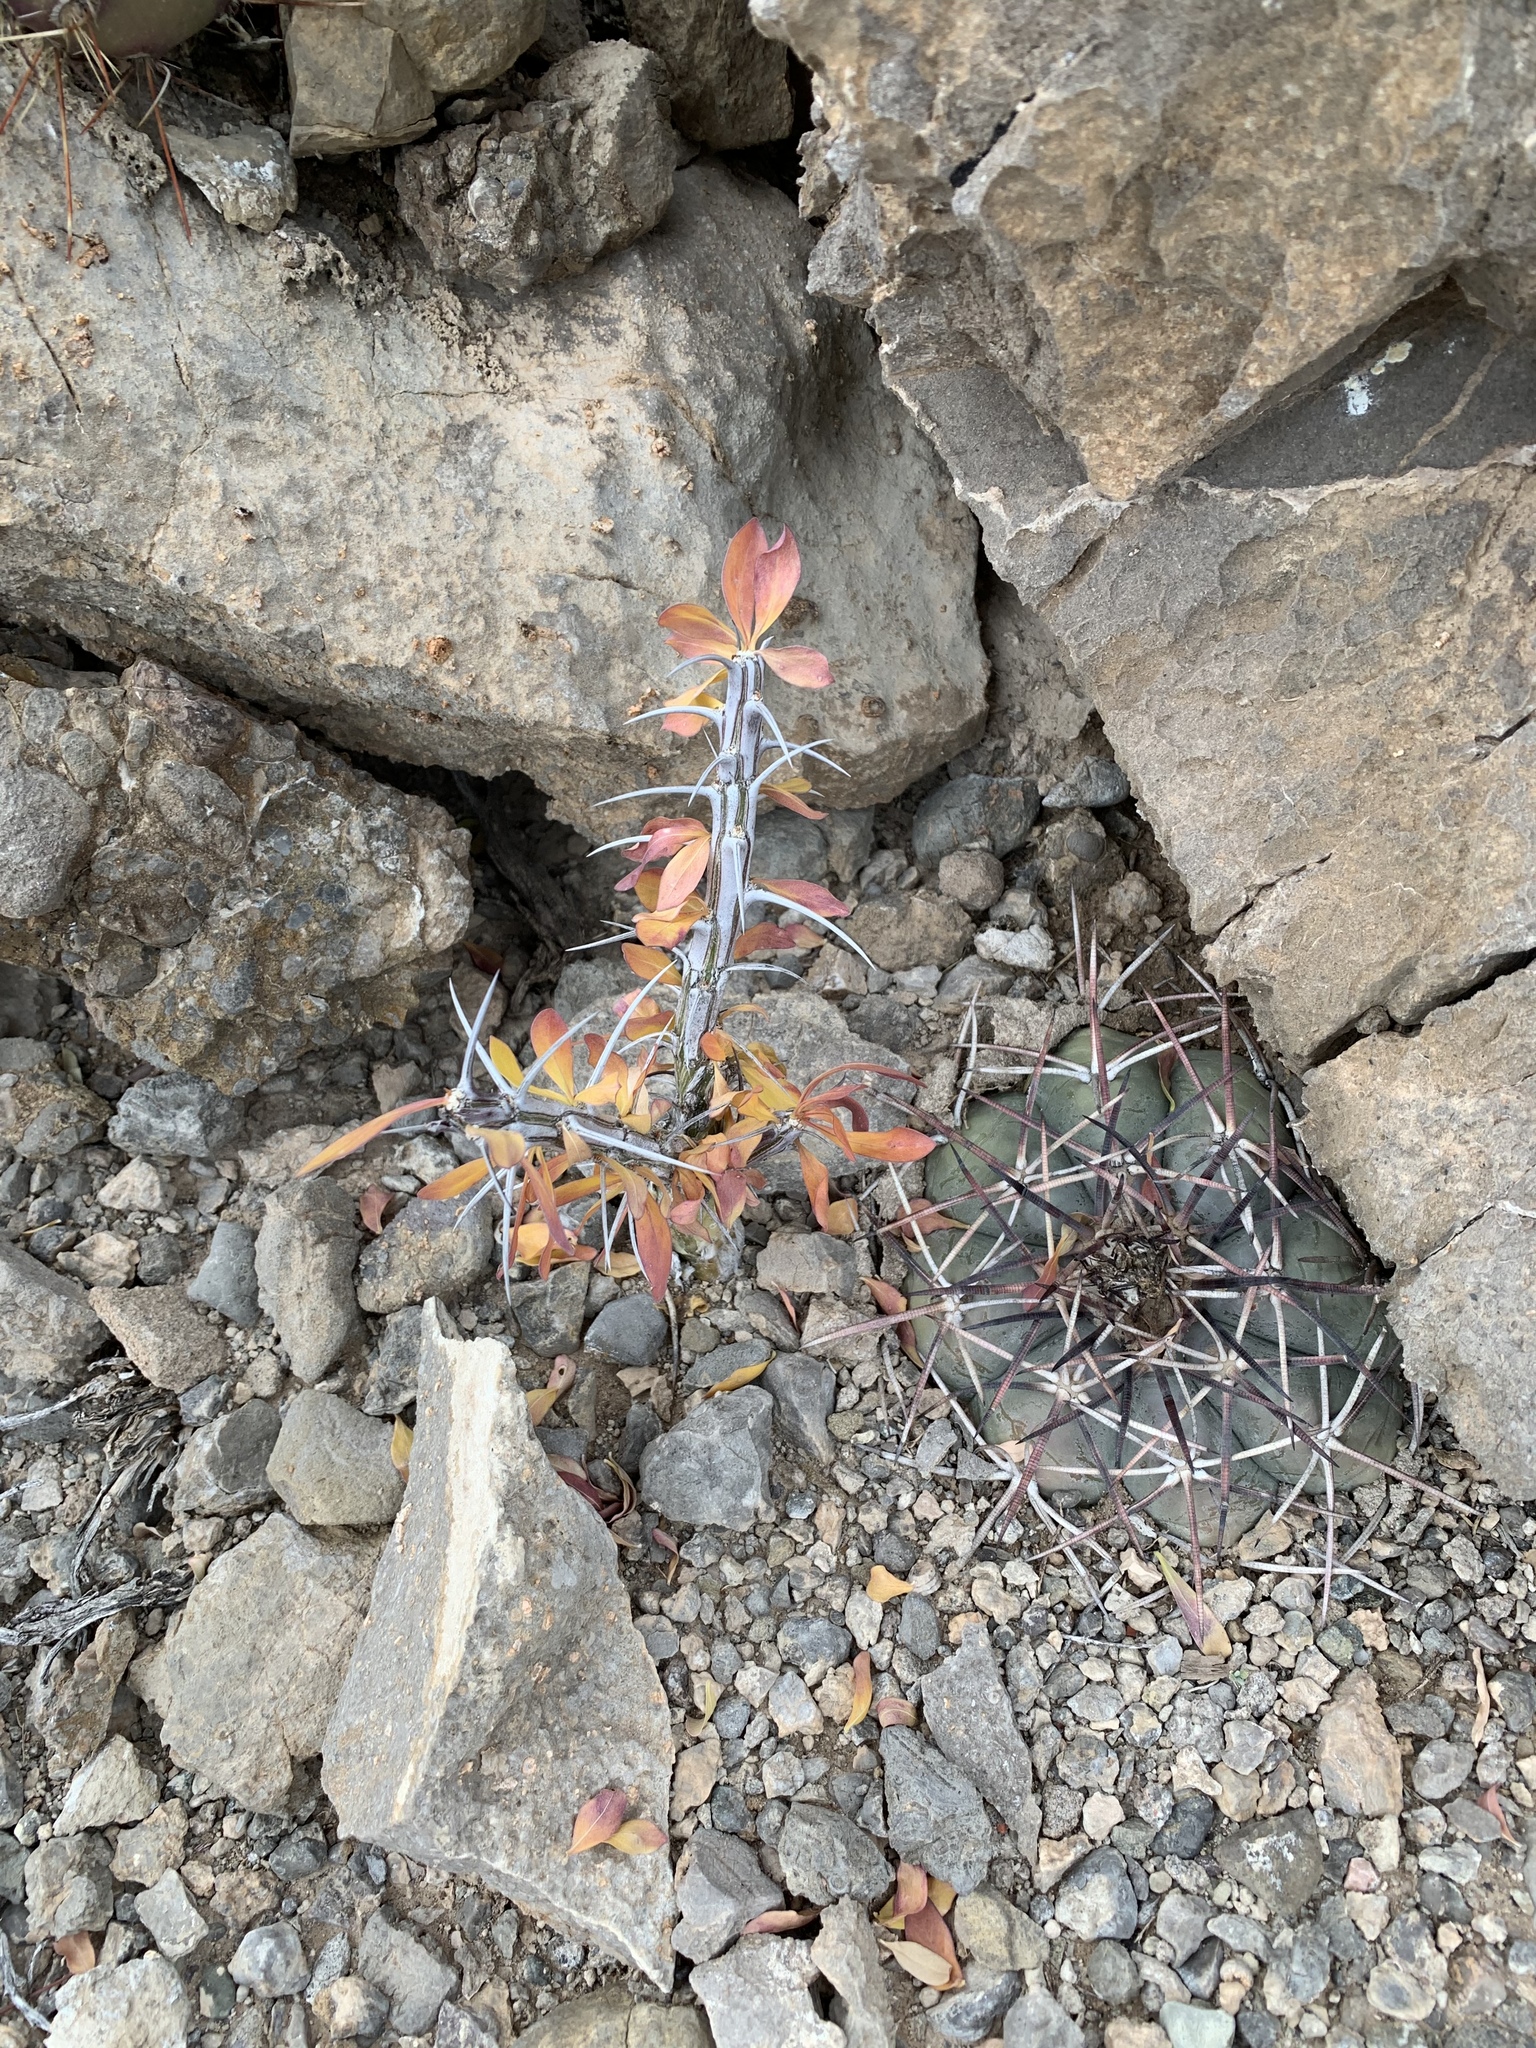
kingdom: Plantae
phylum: Tracheophyta
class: Magnoliopsida
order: Ericales
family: Fouquieriaceae
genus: Fouquieria
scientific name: Fouquieria splendens
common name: Vine-cactus
